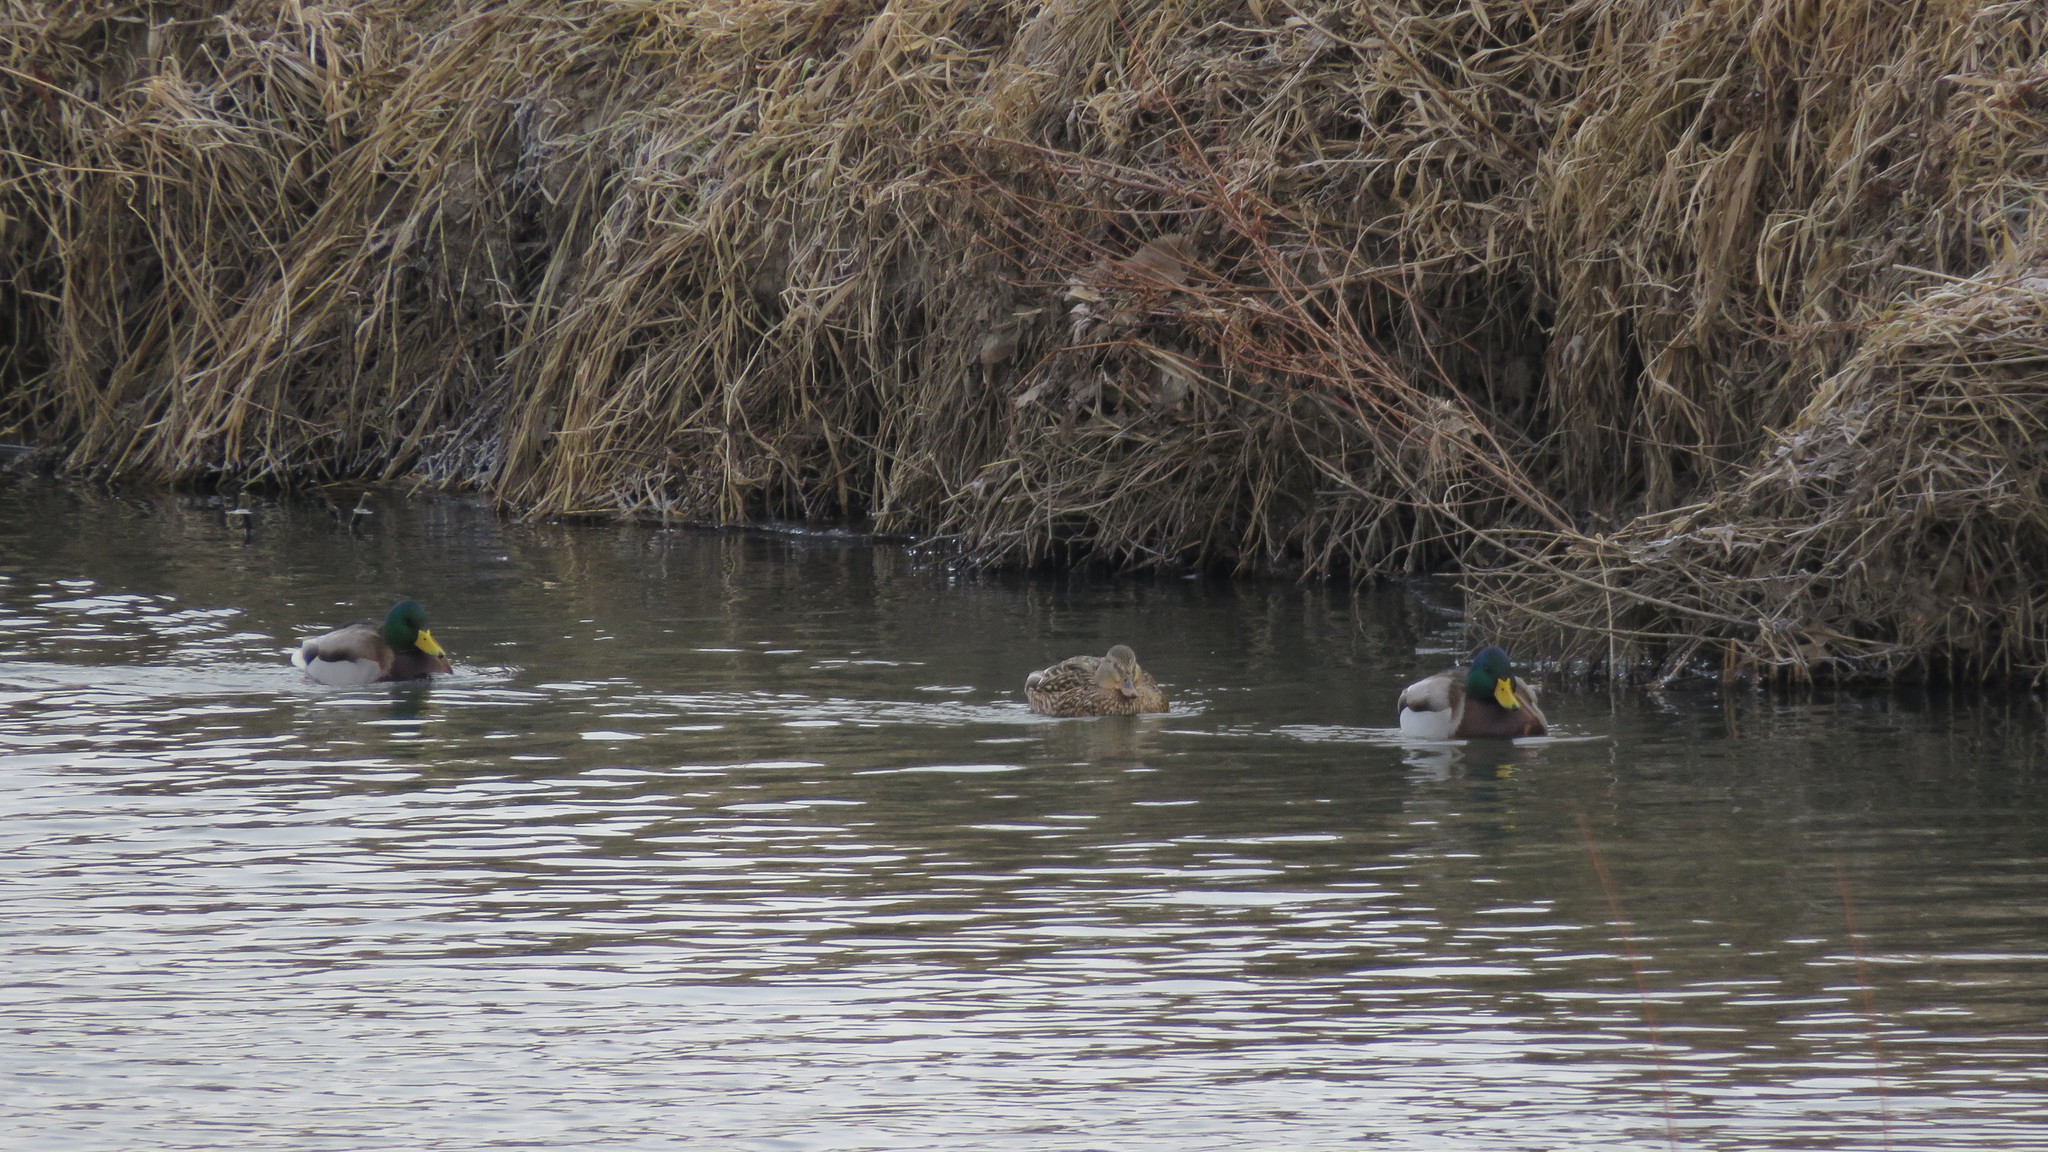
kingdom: Animalia
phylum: Chordata
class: Aves
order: Anseriformes
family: Anatidae
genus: Anas
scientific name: Anas platyrhynchos
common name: Mallard
